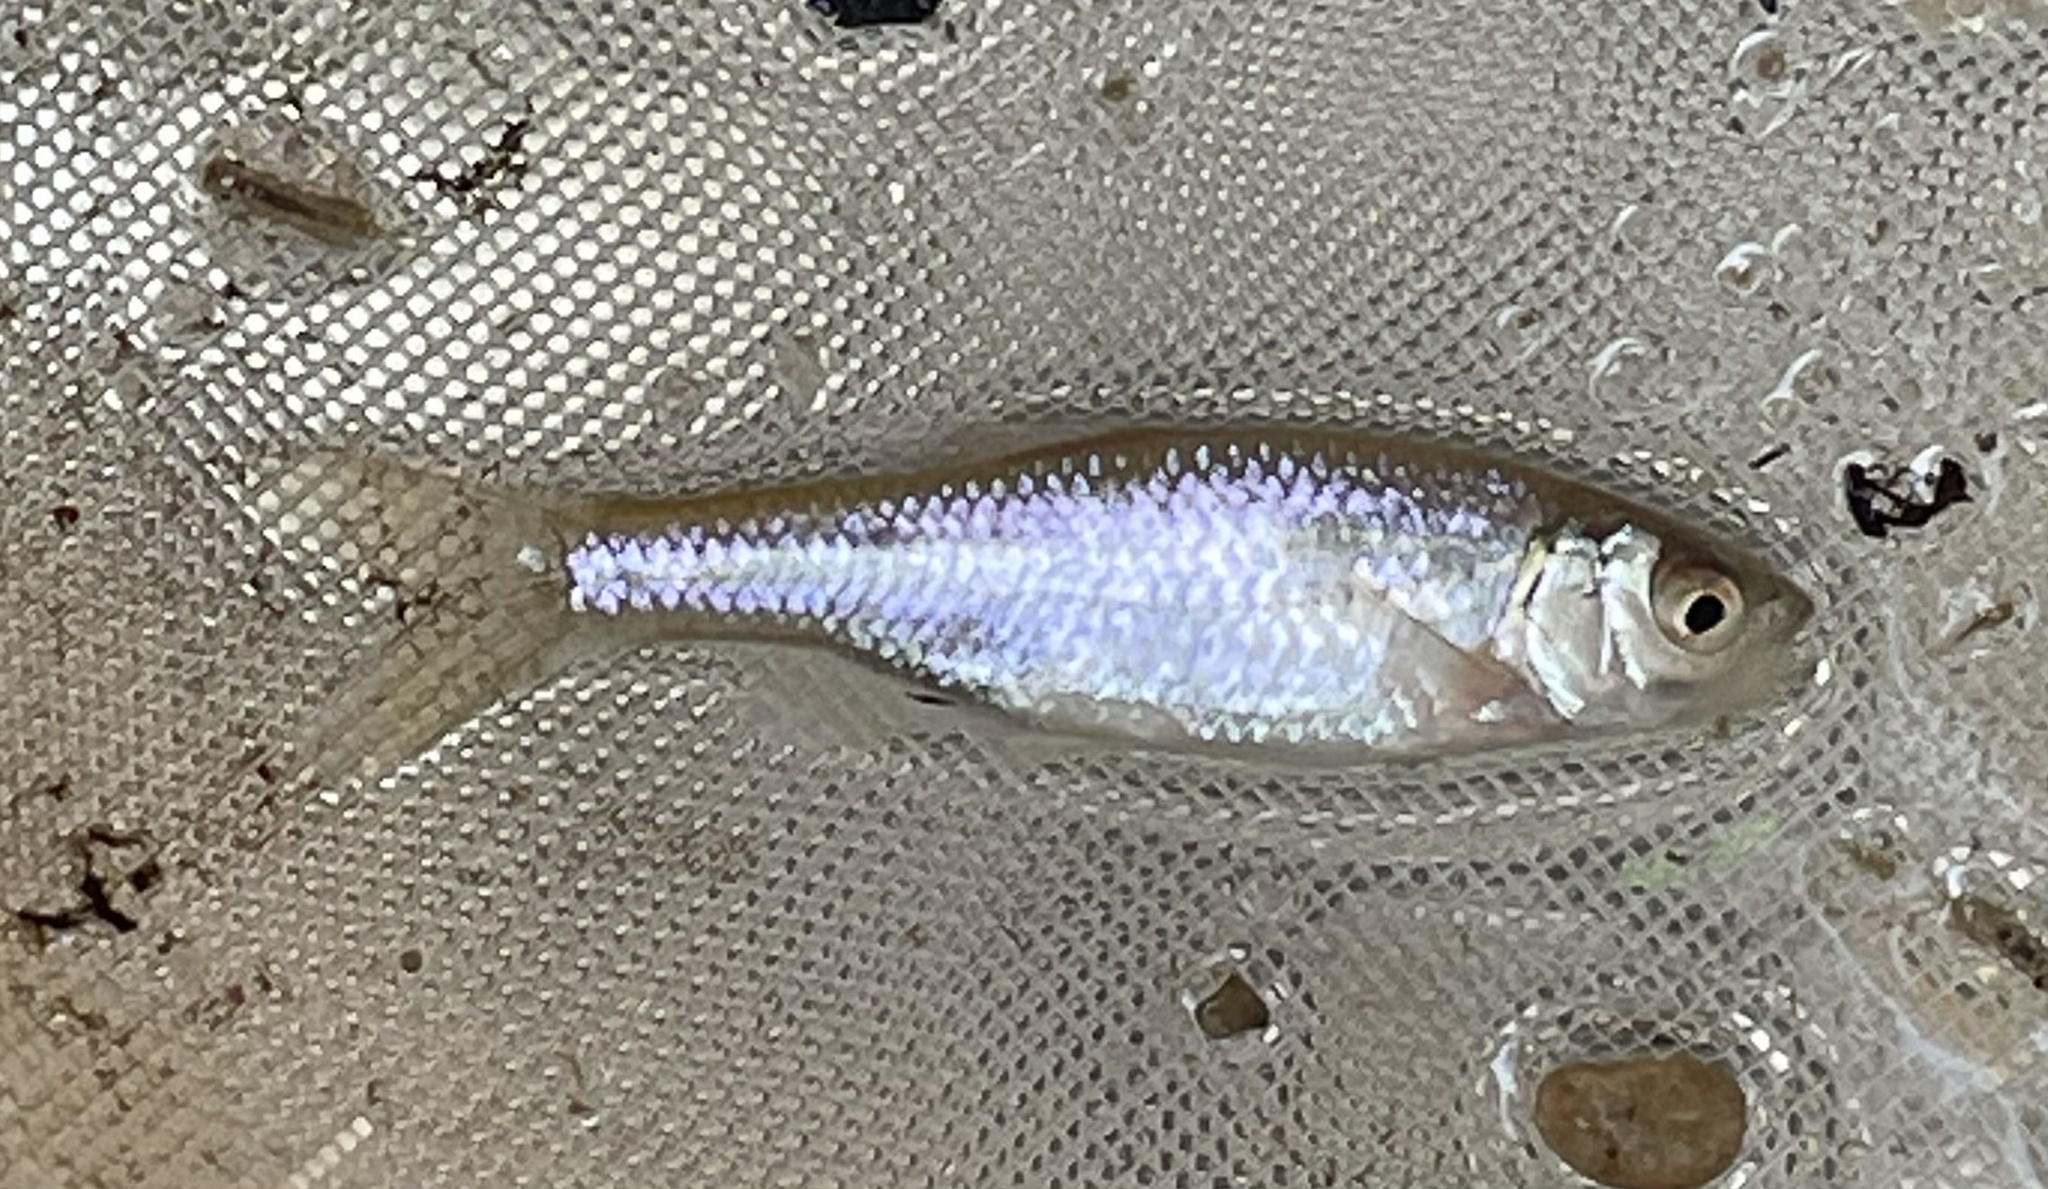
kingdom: Animalia
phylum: Chordata
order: Cypriniformes
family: Cyprinidae
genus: Cyprinella
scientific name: Cyprinella lutrensis
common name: Red shiner
